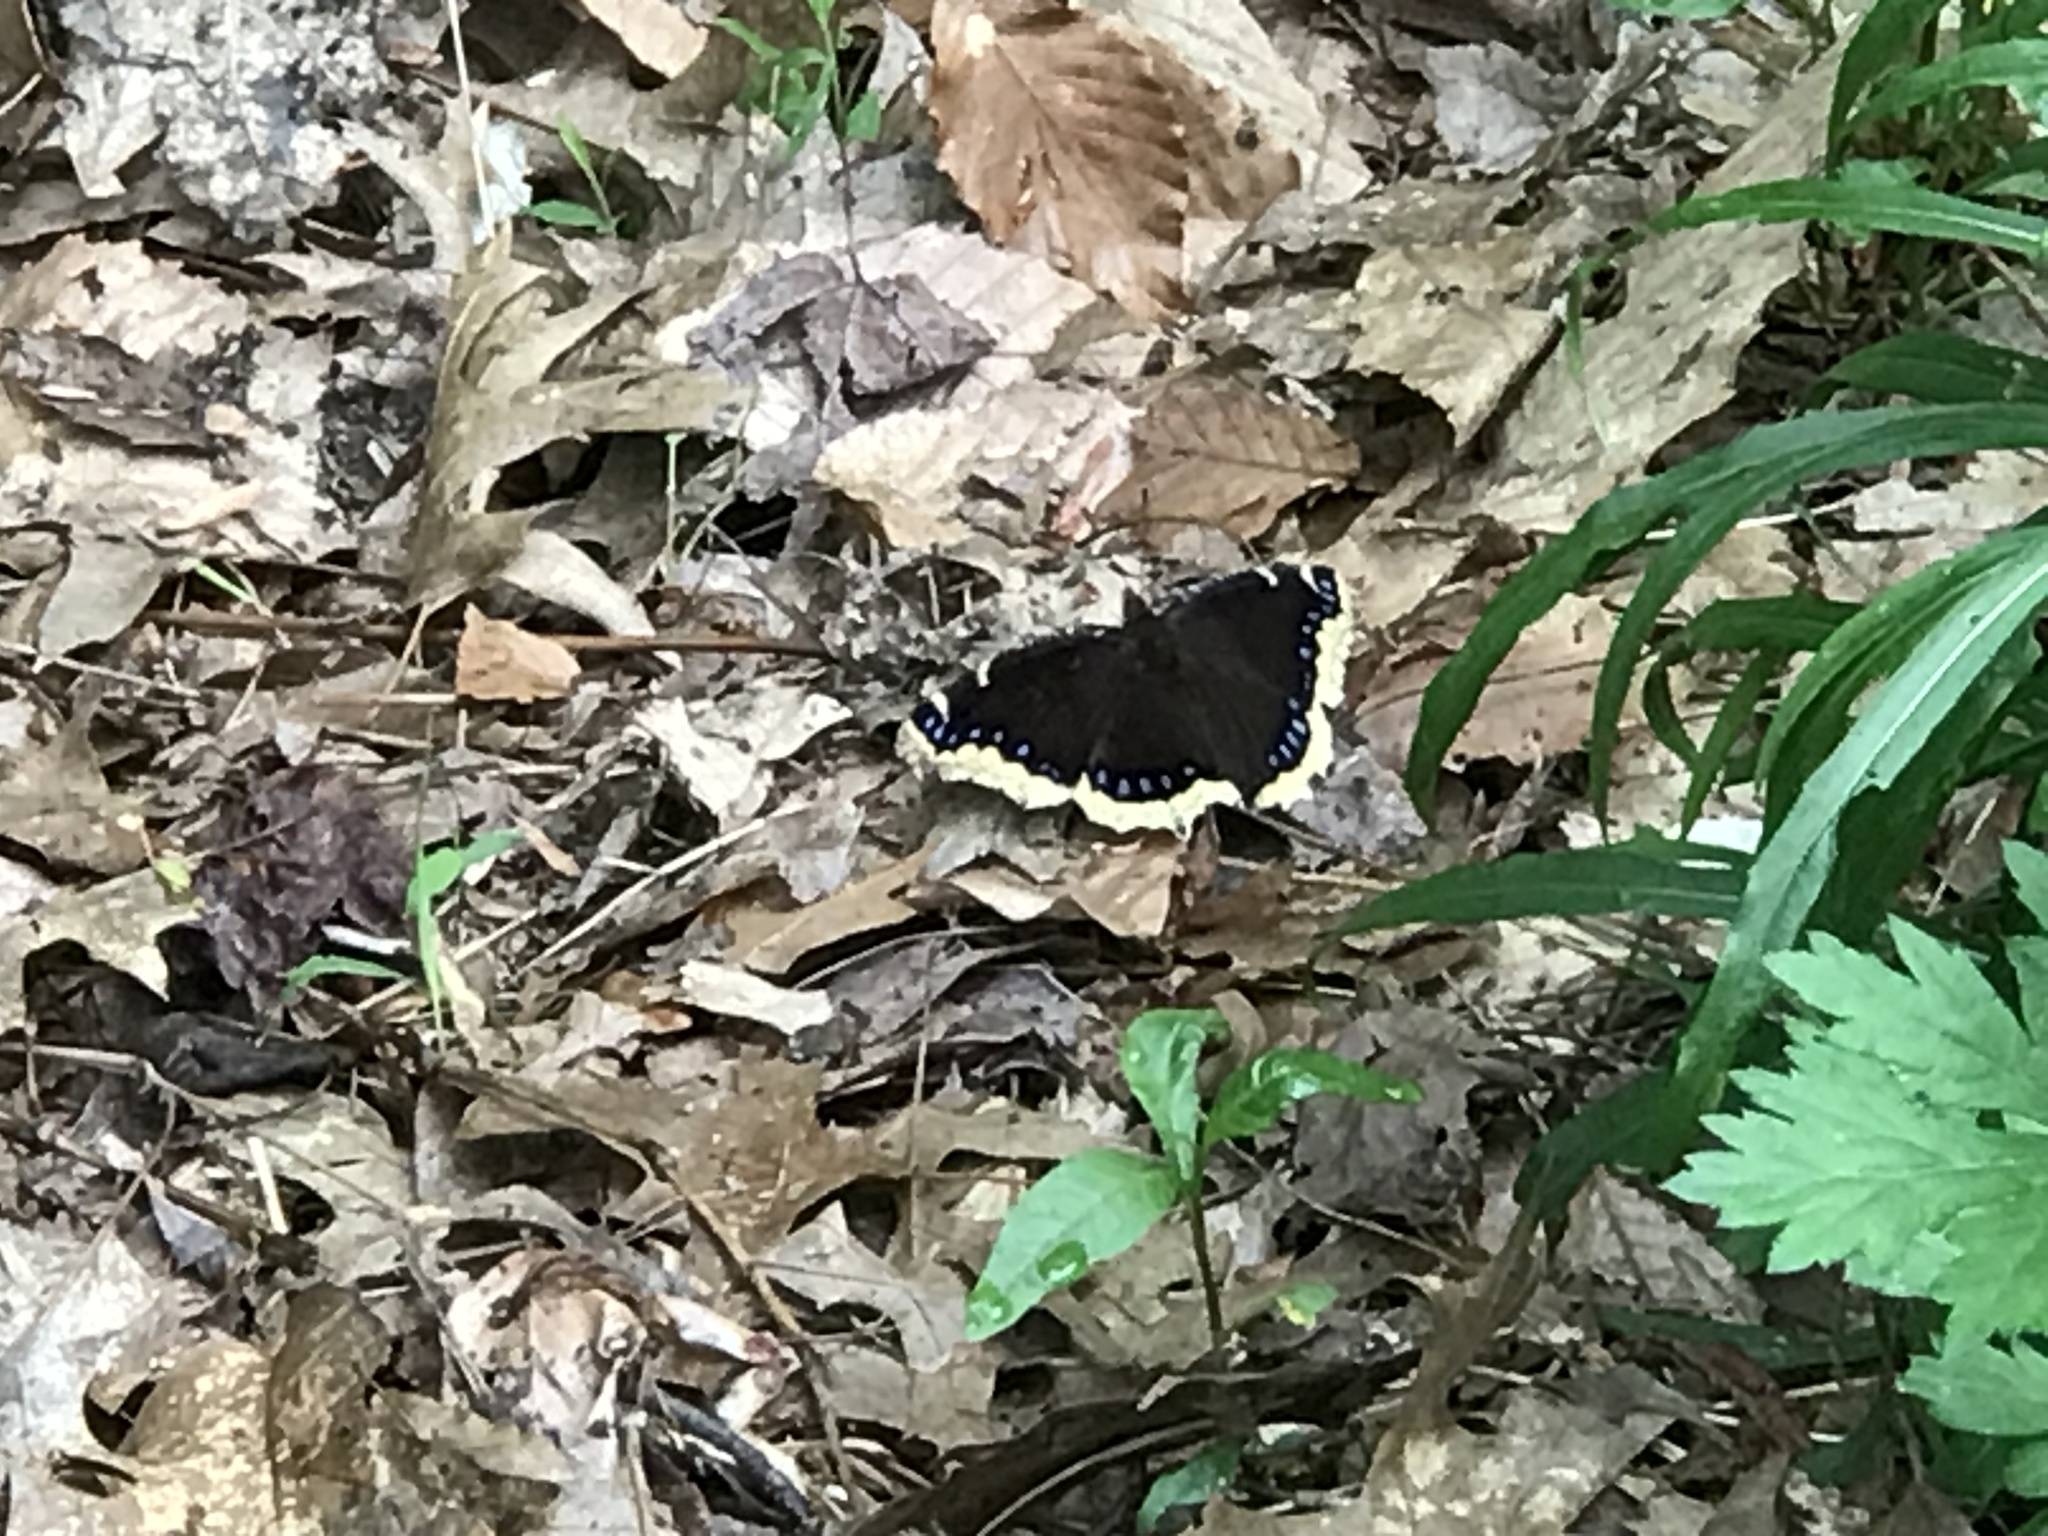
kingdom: Animalia
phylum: Arthropoda
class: Insecta
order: Lepidoptera
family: Nymphalidae
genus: Nymphalis
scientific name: Nymphalis antiopa
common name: Camberwell beauty
